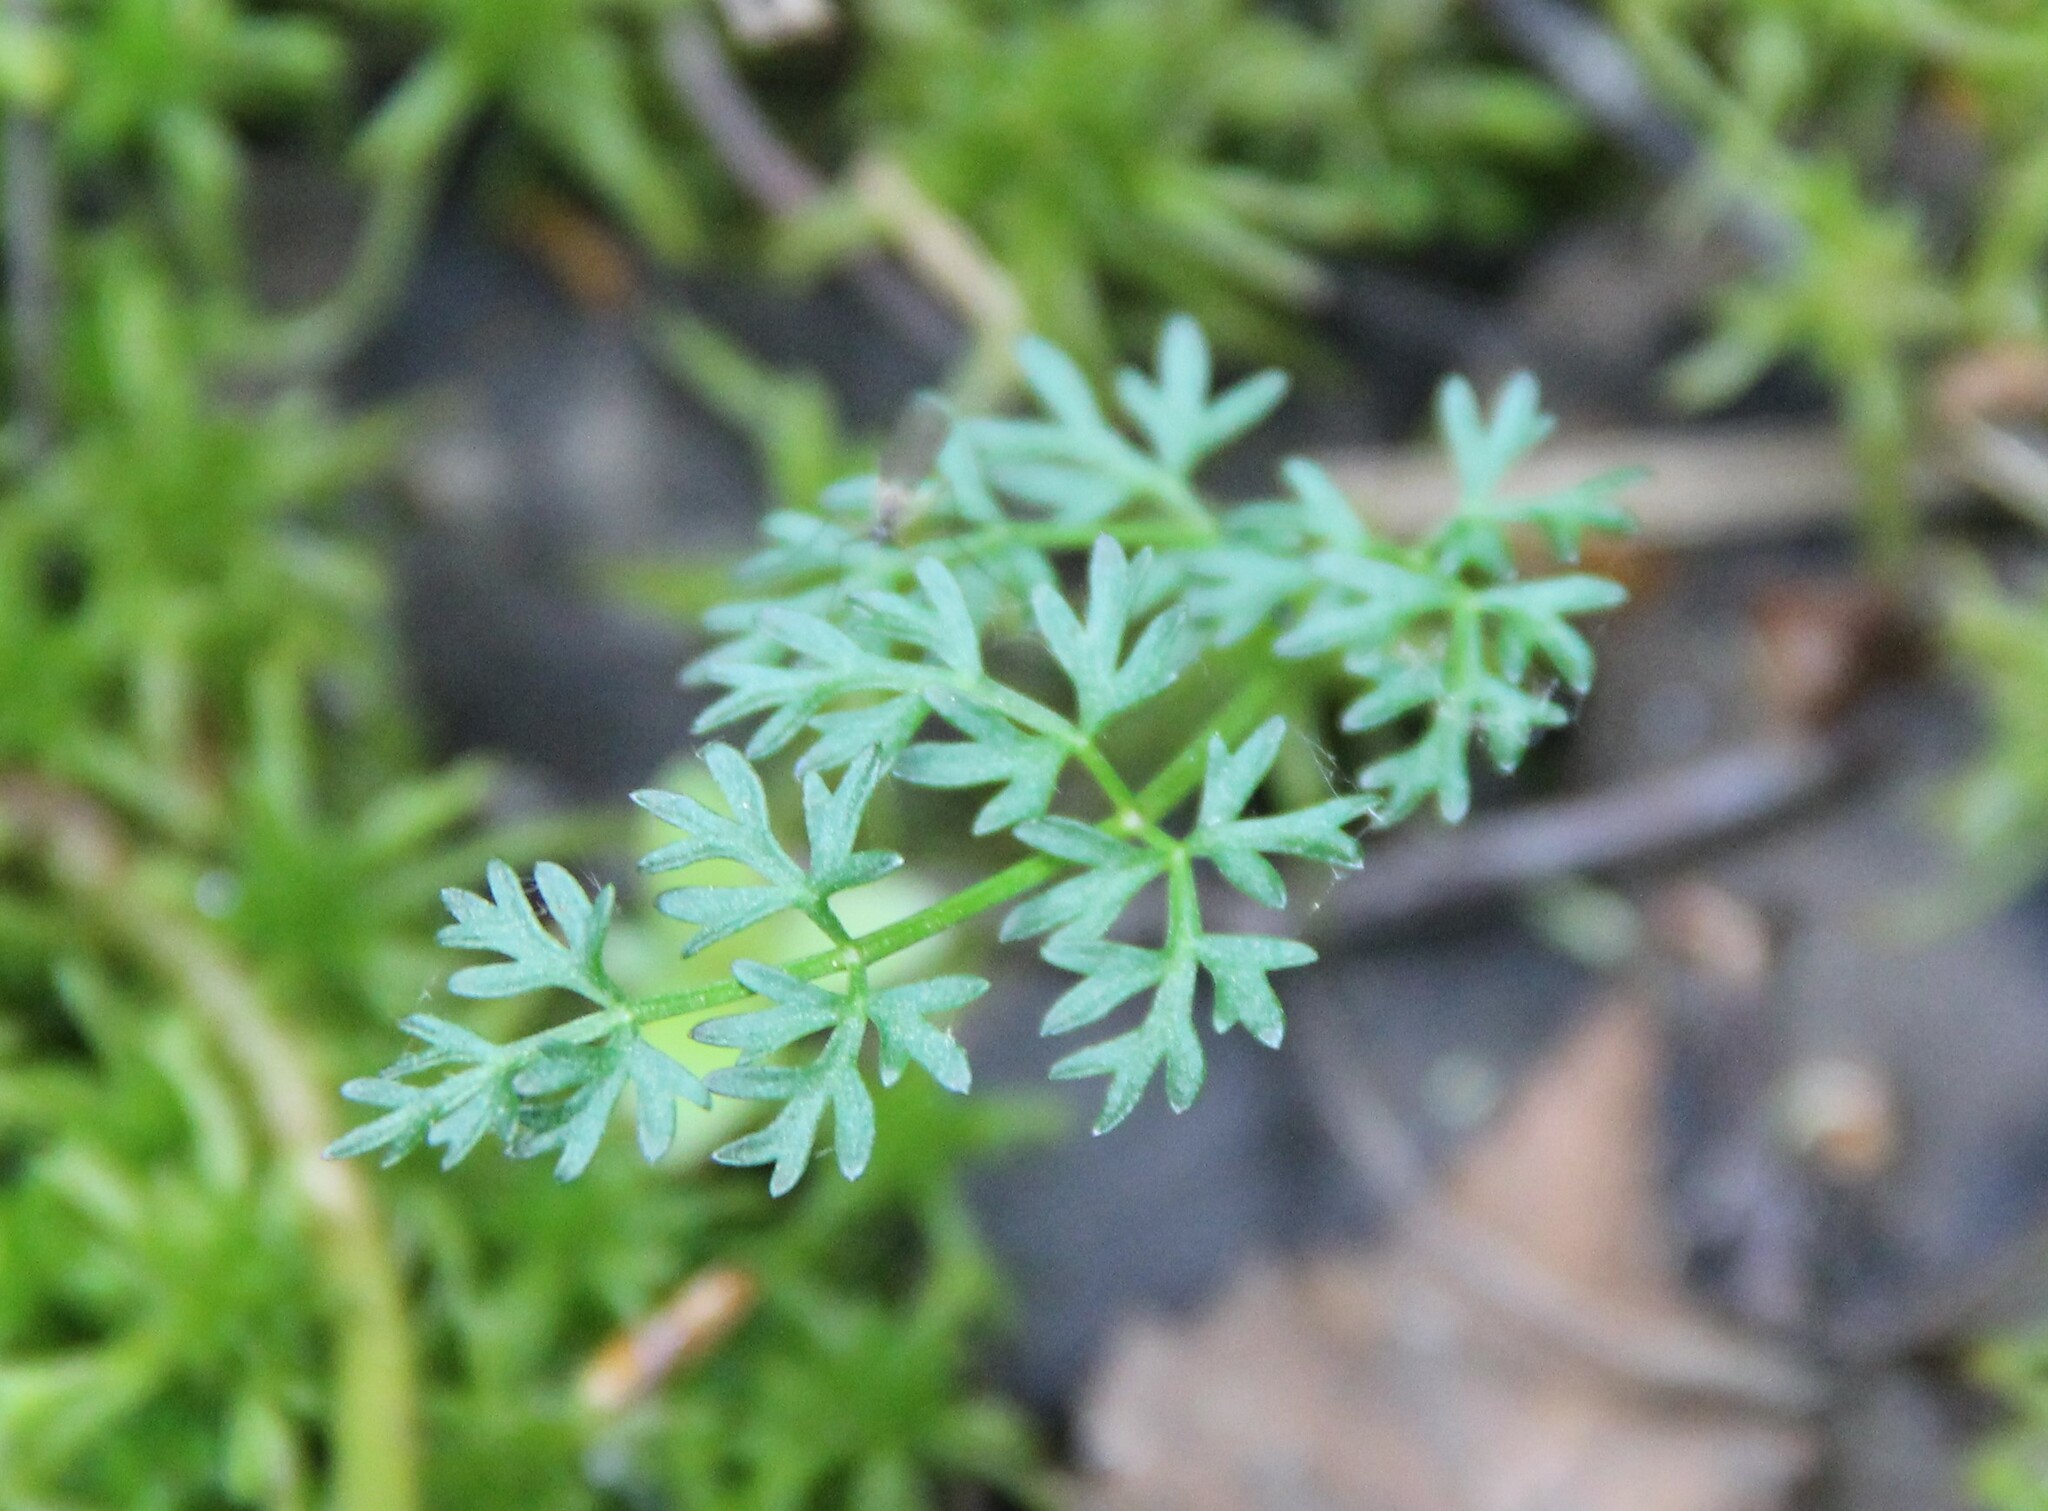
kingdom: Plantae
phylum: Tracheophyta
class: Magnoliopsida
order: Apiales
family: Apiaceae
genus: Oenanthe
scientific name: Oenanthe aquatica
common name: Fine-leaved water-dropwort
